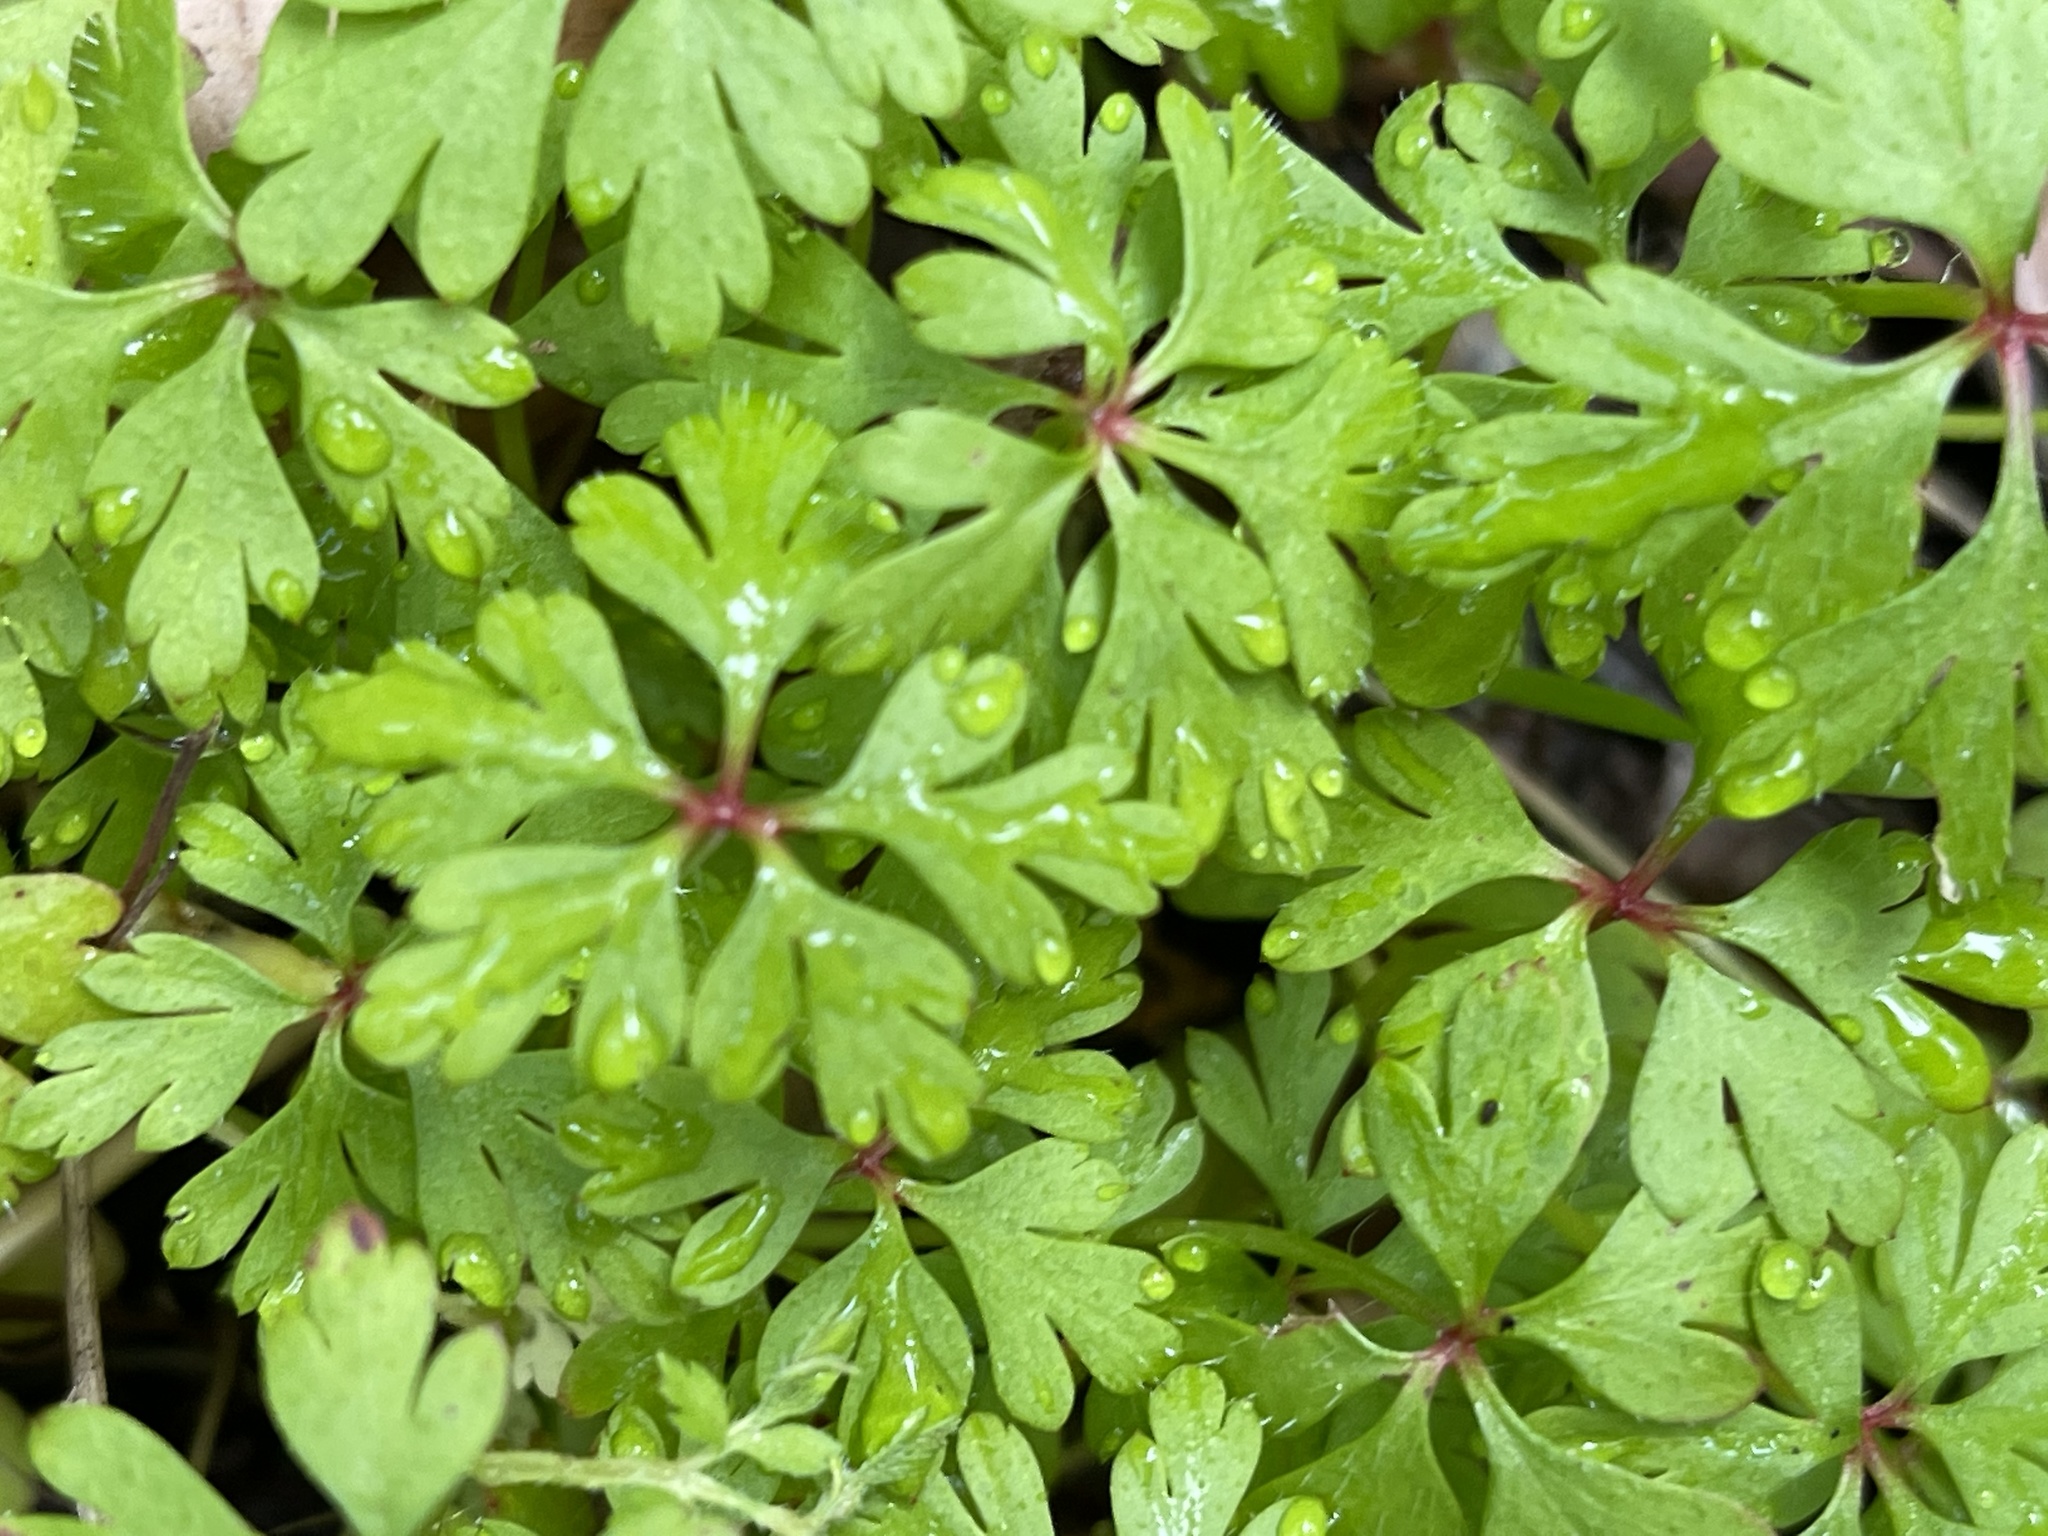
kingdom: Plantae
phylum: Tracheophyta
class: Magnoliopsida
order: Geraniales
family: Geraniaceae
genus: Geranium
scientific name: Geranium
